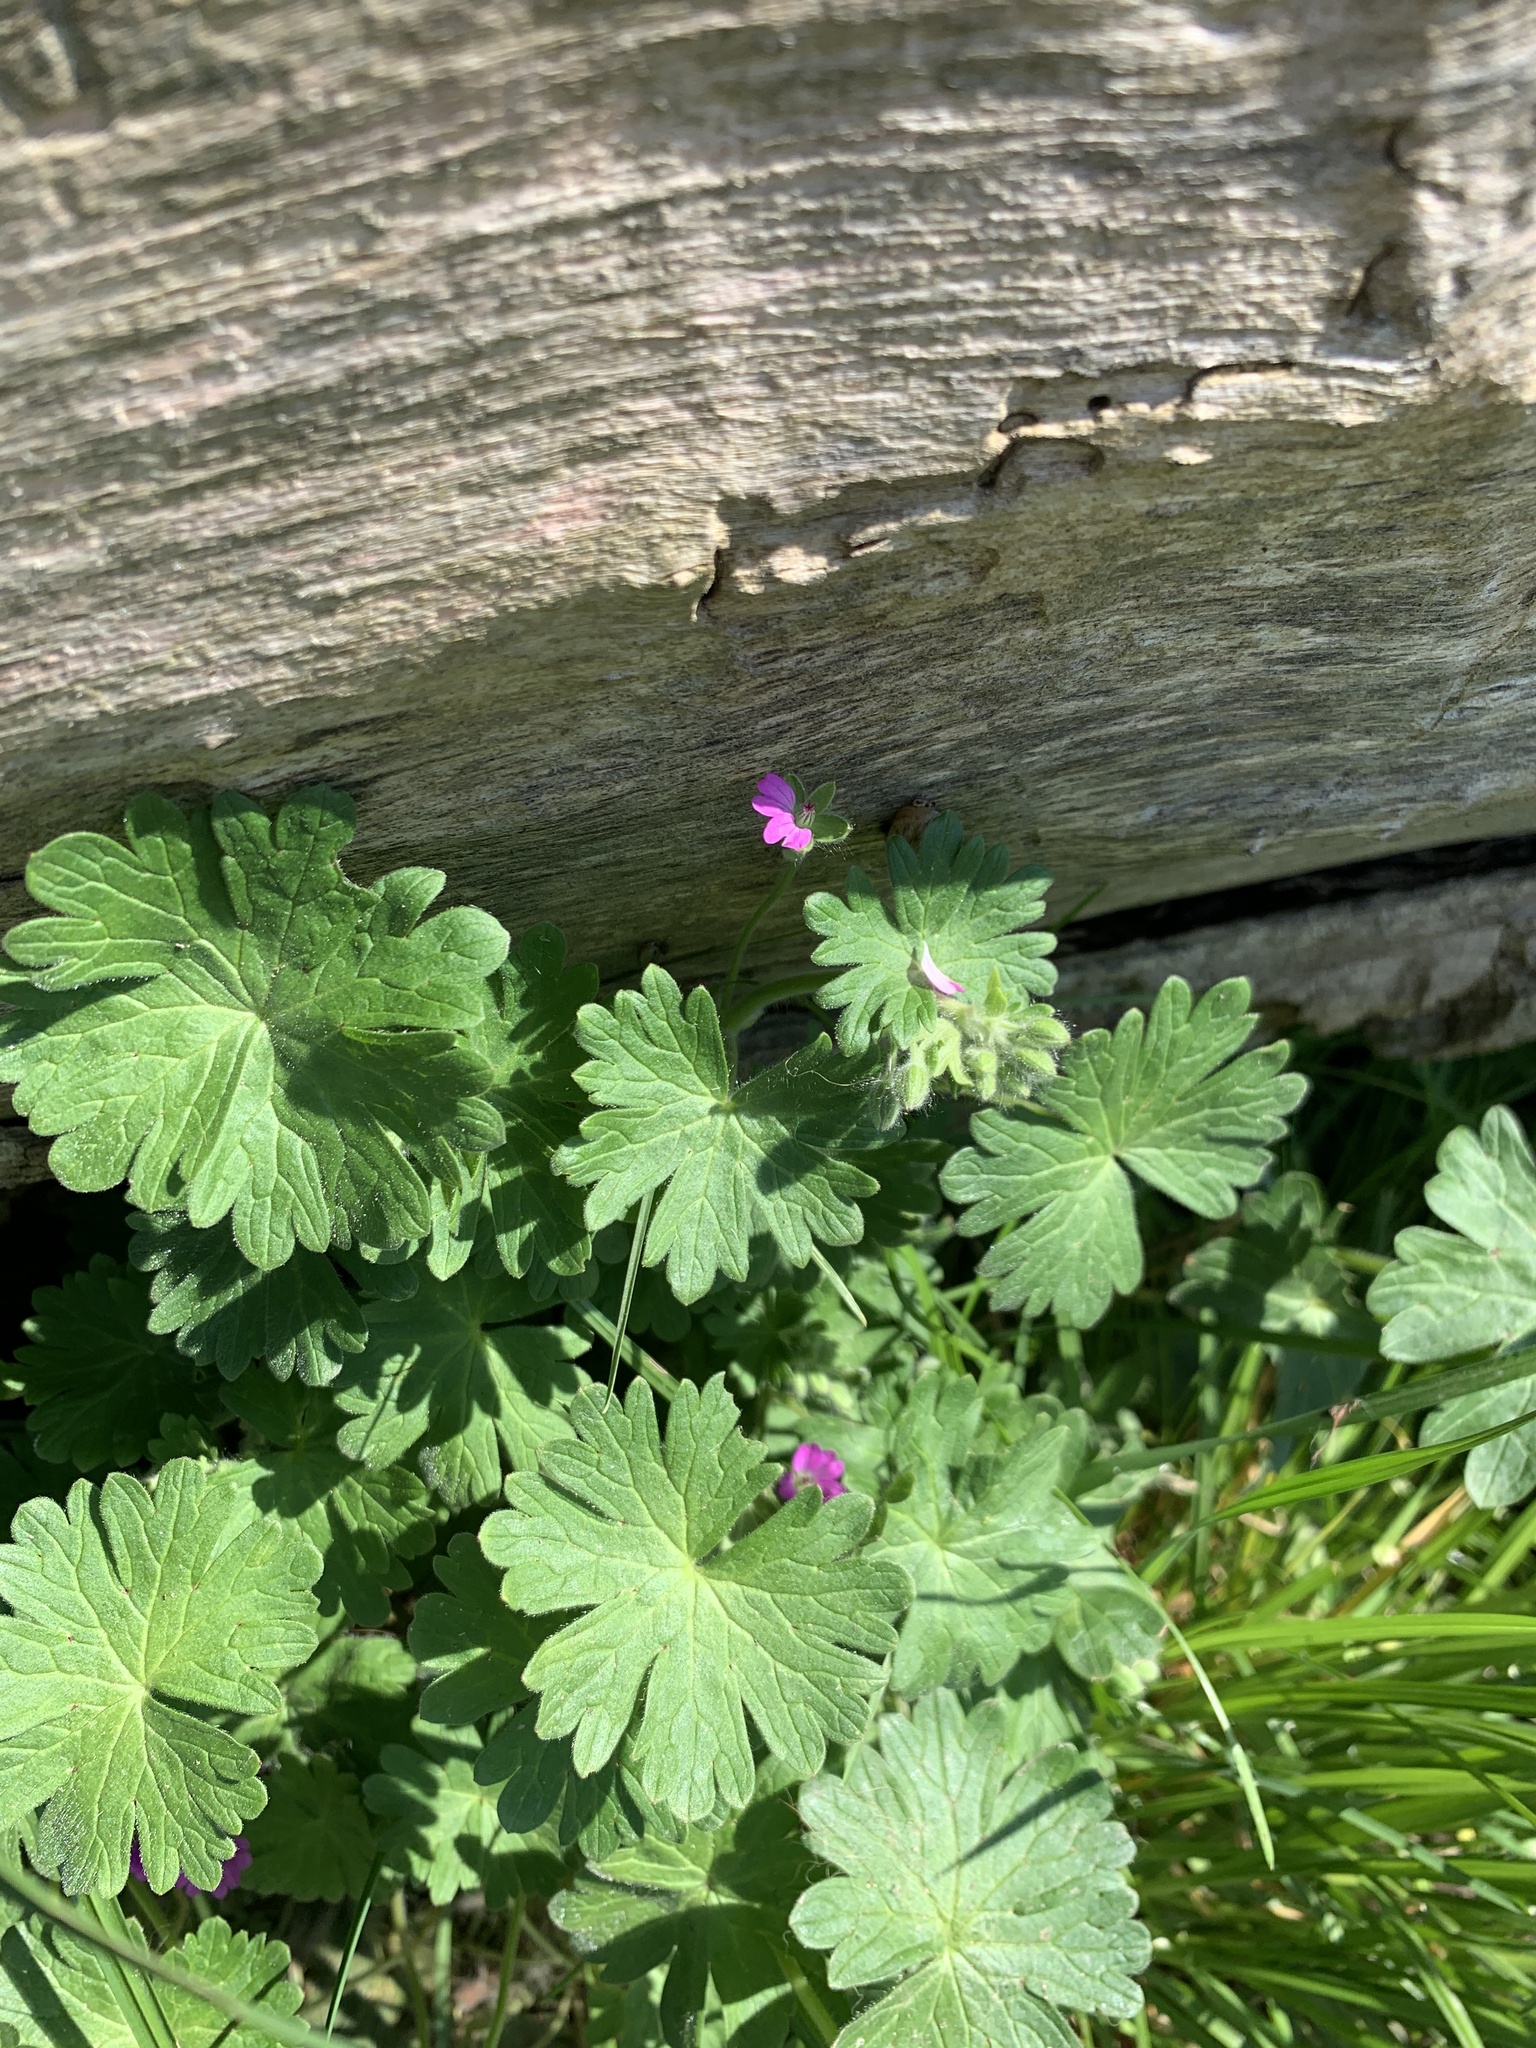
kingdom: Plantae
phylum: Tracheophyta
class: Magnoliopsida
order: Geraniales
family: Geraniaceae
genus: Geranium
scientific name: Geranium molle
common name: Dove's-foot crane's-bill
